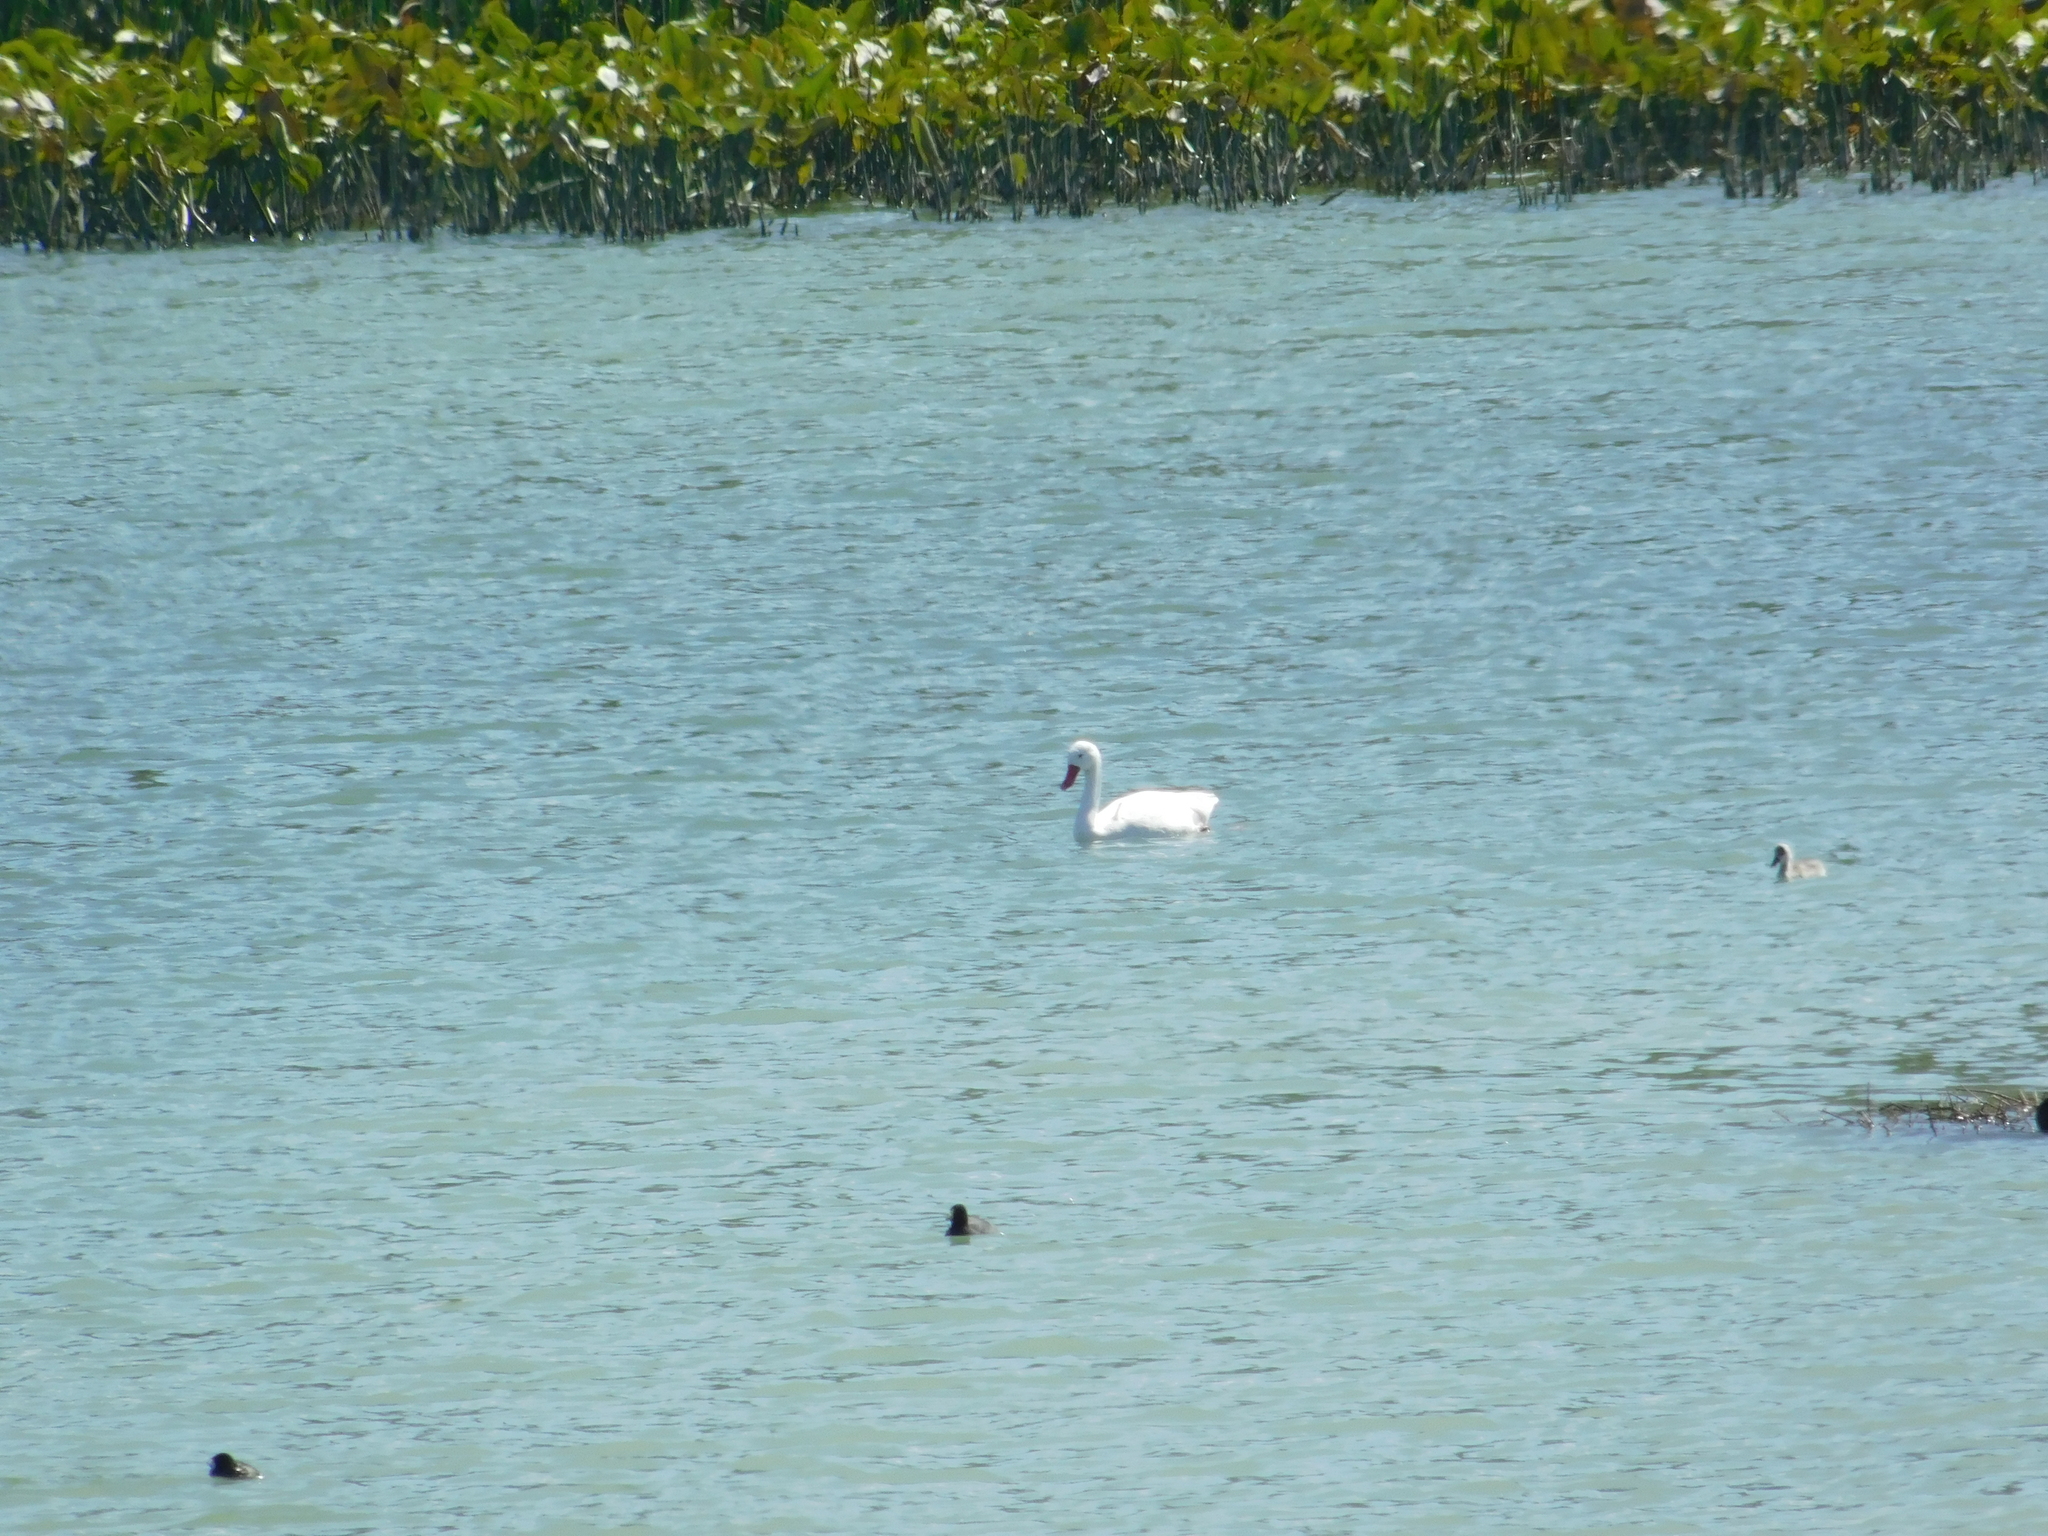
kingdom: Animalia
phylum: Chordata
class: Aves
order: Anseriformes
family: Anatidae
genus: Coscoroba
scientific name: Coscoroba coscoroba
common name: Coscoroba swan
